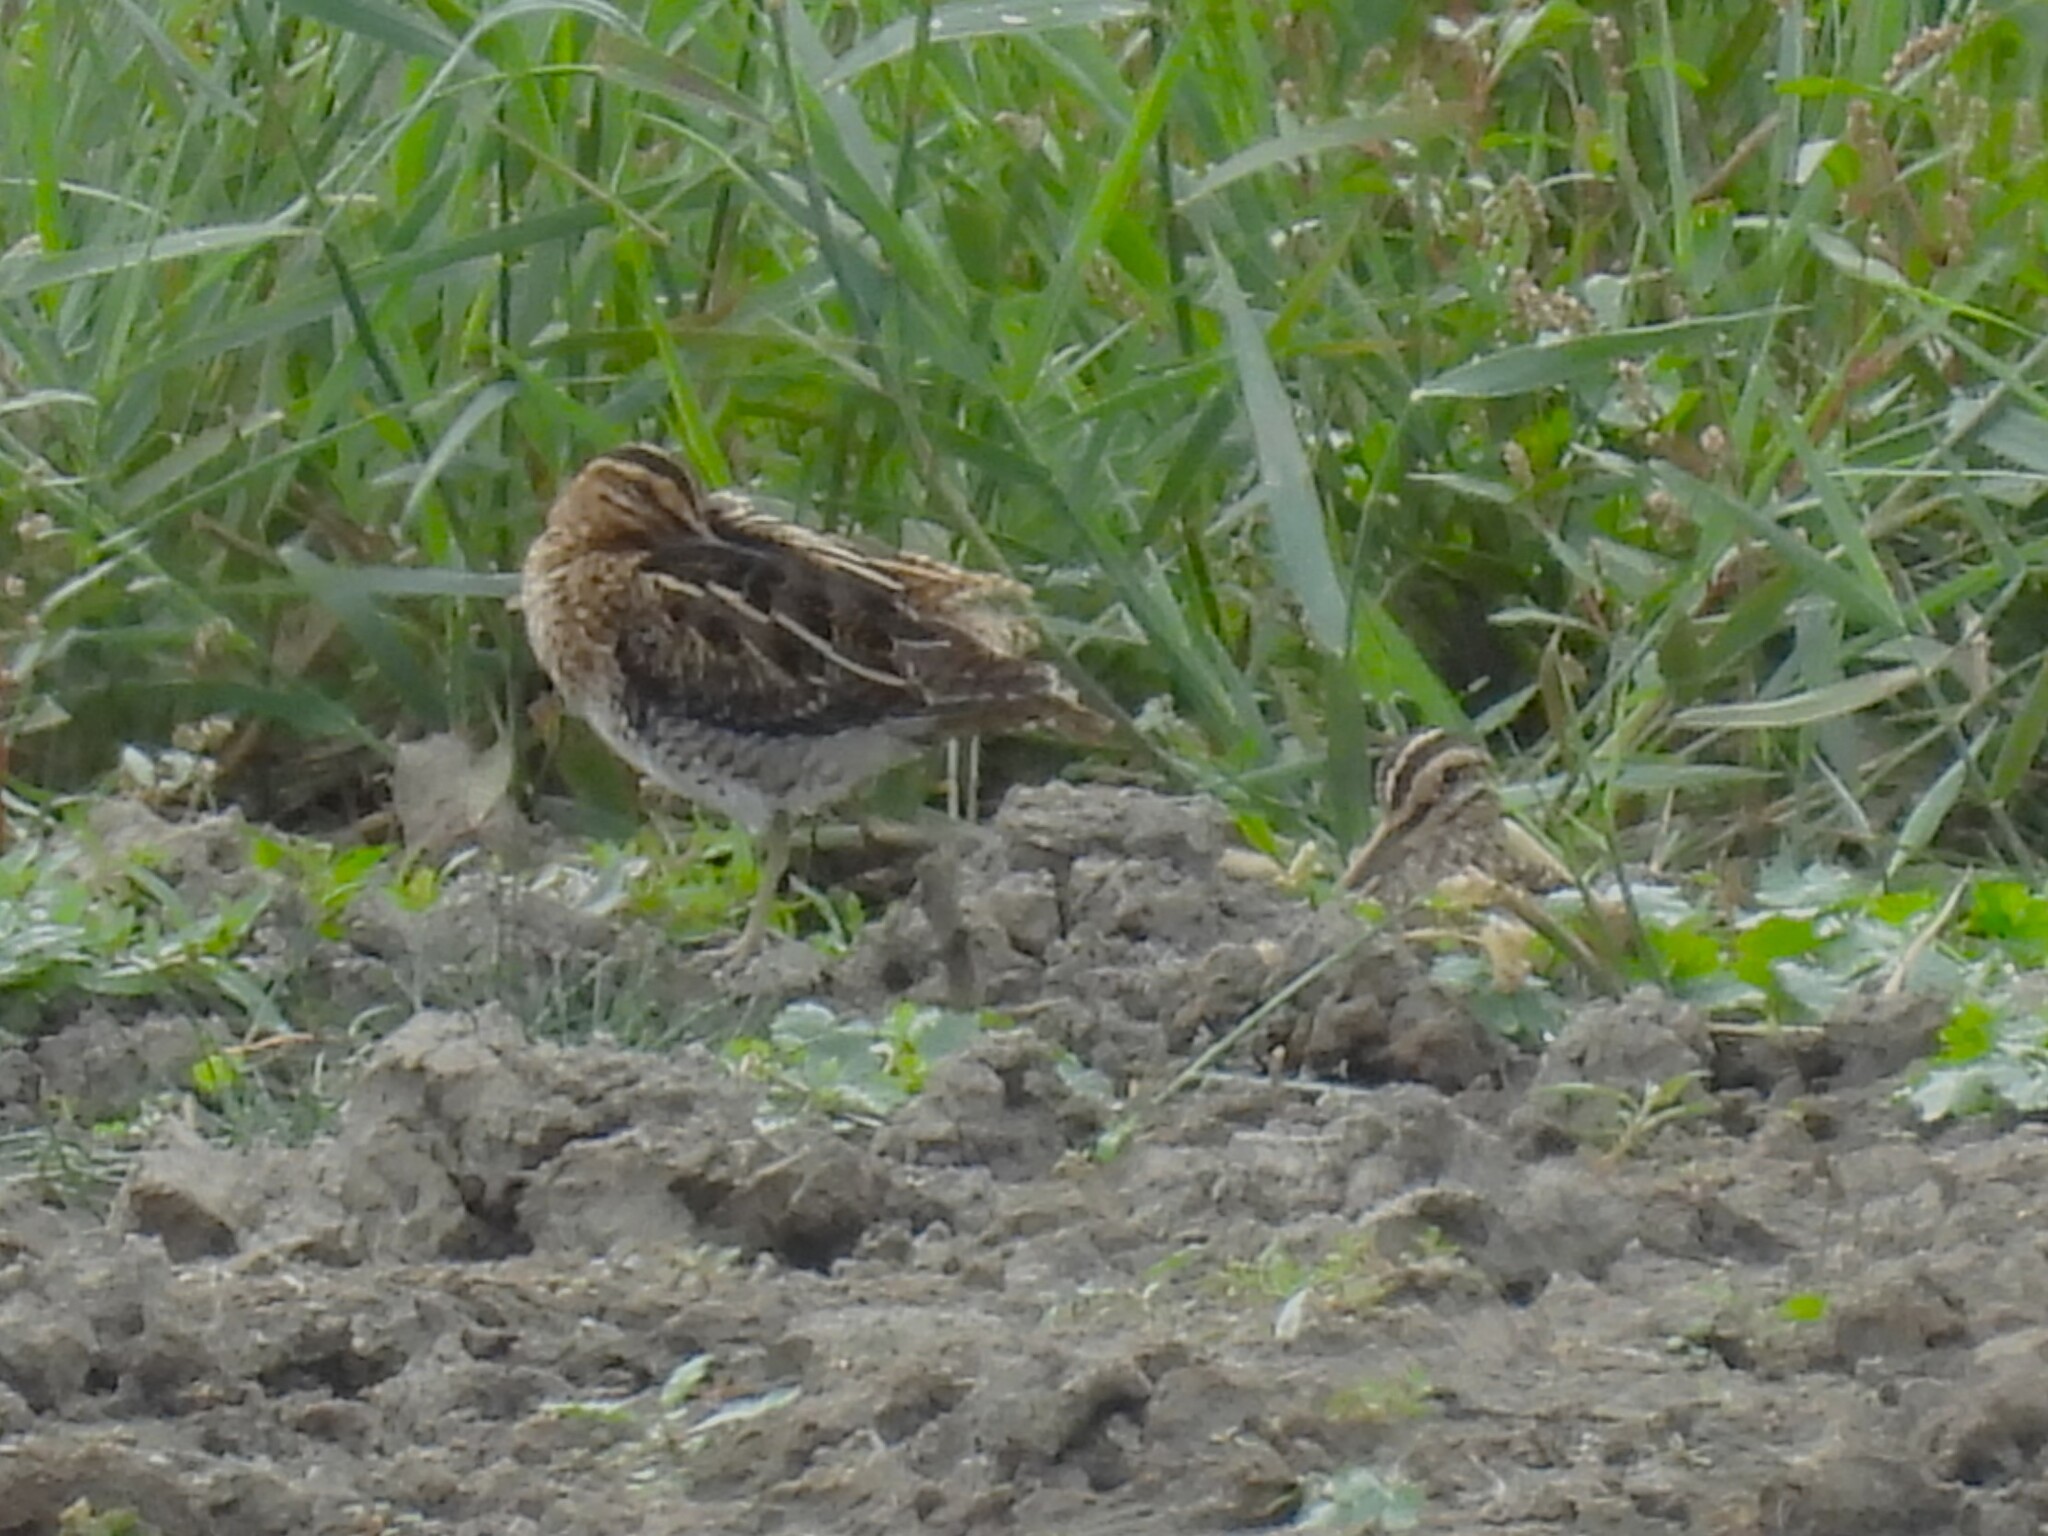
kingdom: Animalia
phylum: Chordata
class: Aves
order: Charadriiformes
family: Scolopacidae
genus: Gallinago
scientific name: Gallinago gallinago
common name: Common snipe
